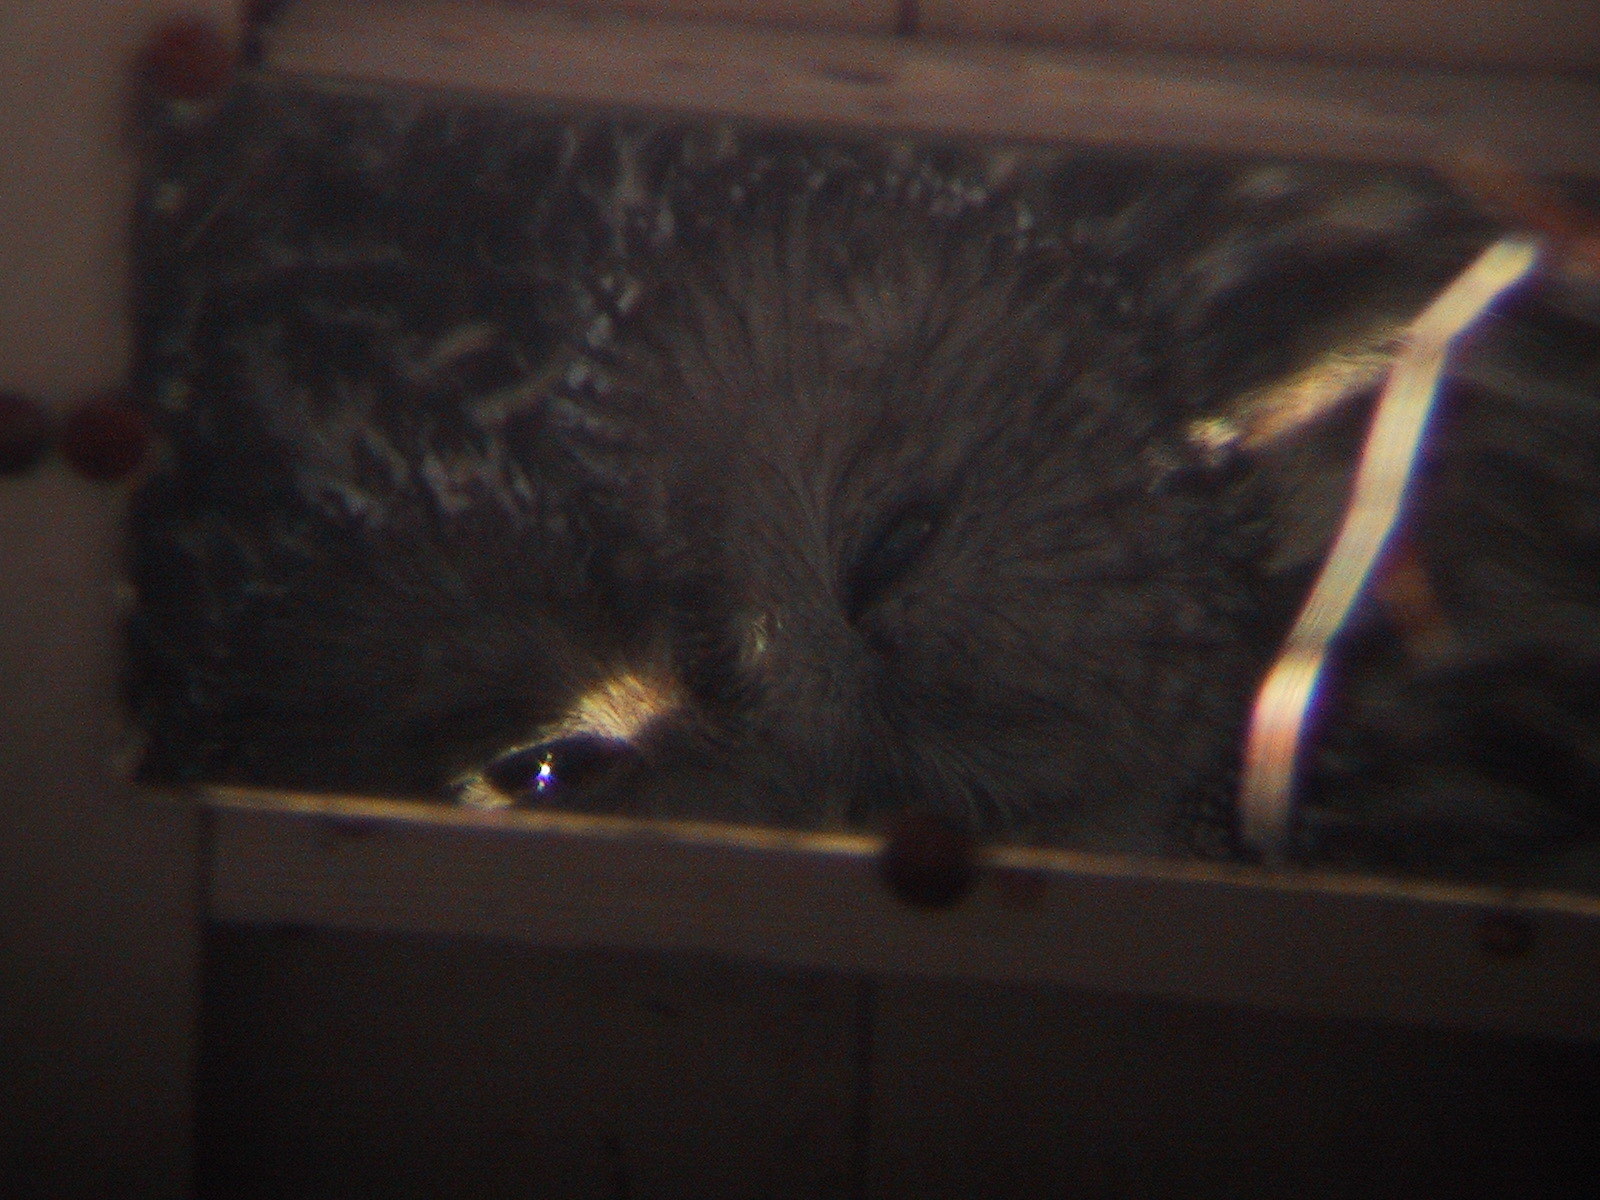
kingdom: Animalia
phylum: Chordata
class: Aves
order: Strigiformes
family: Strigidae
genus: Strix
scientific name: Strix uralensis
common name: Ural owl
